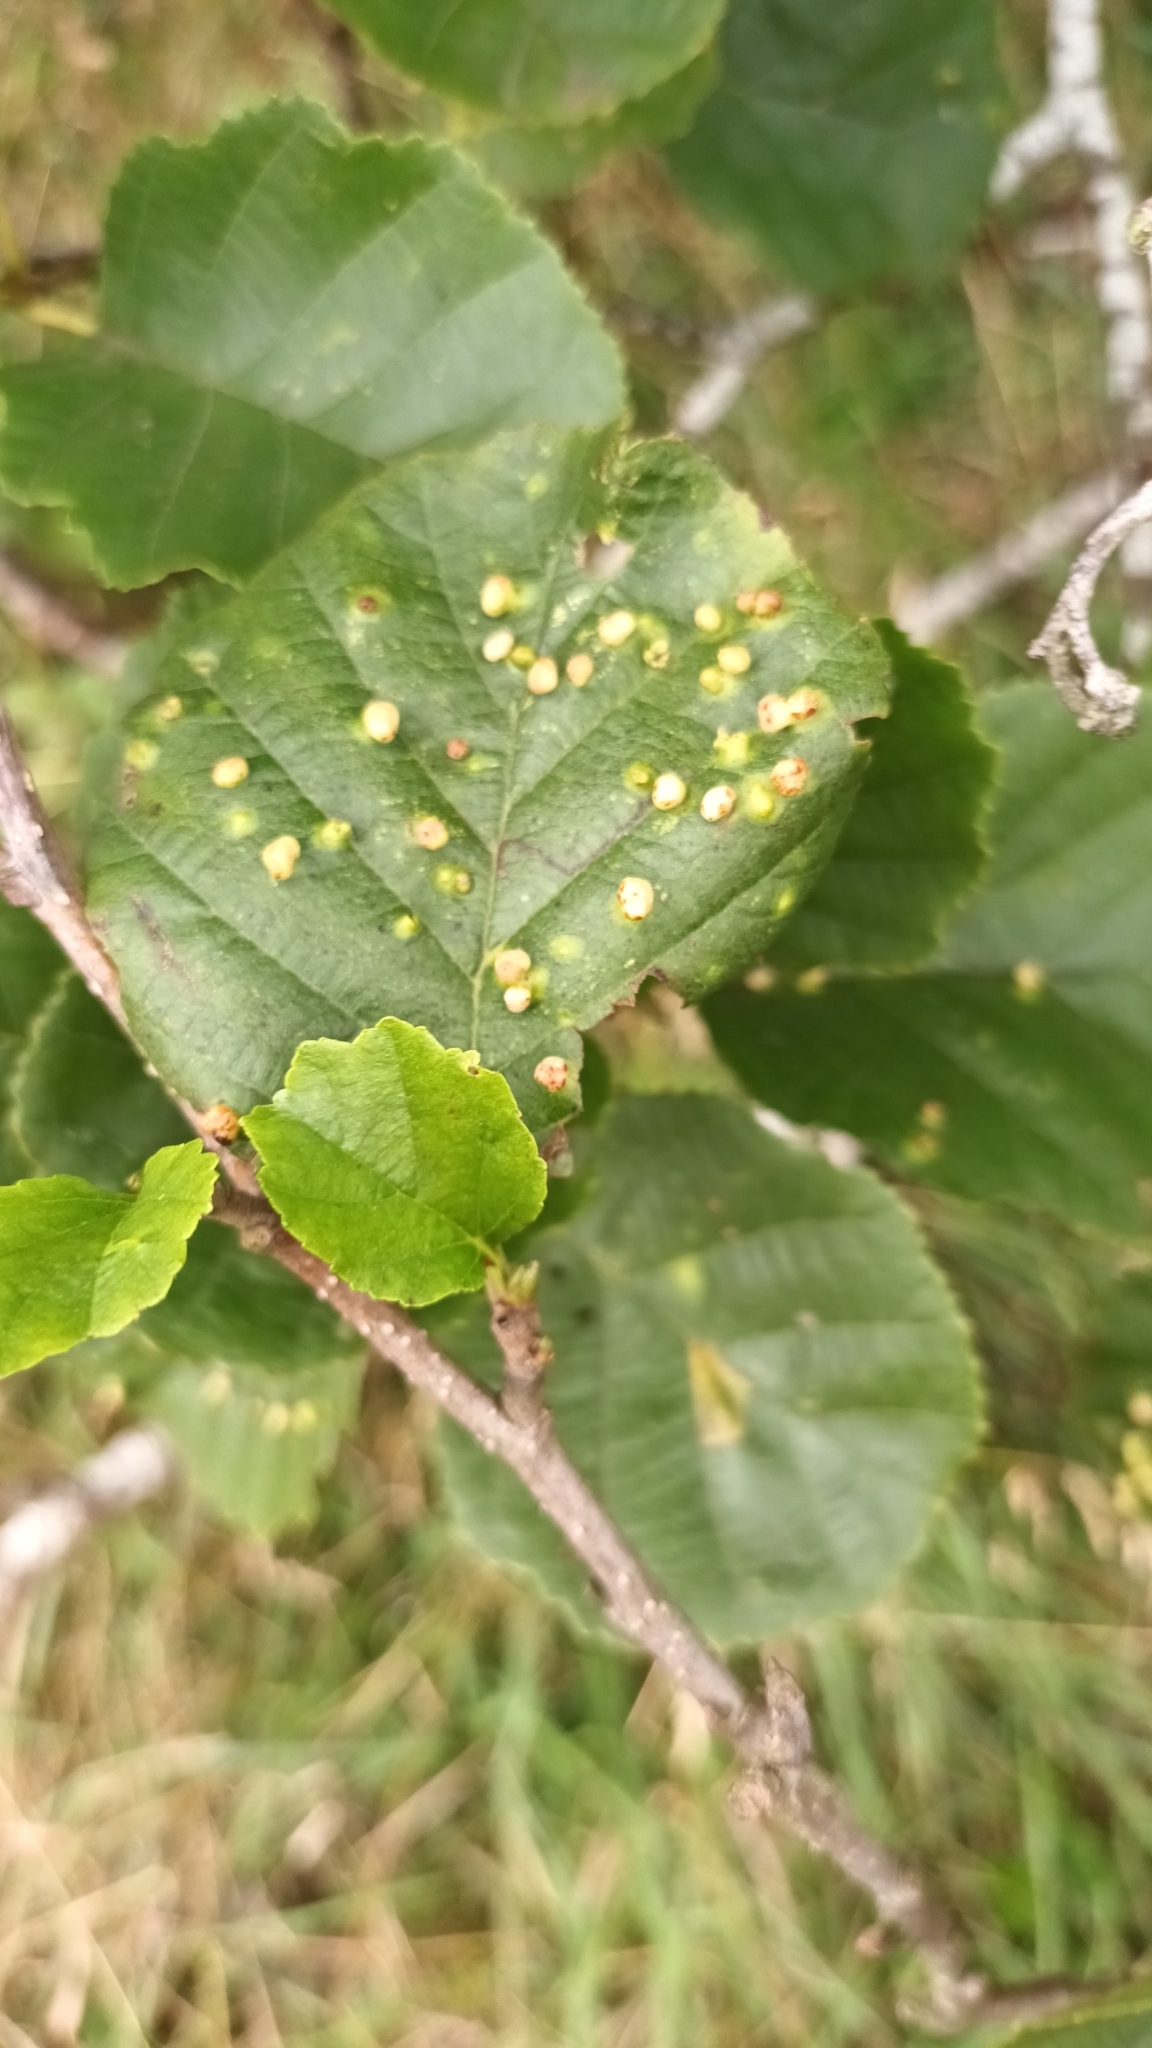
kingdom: Animalia
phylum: Arthropoda
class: Arachnida
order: Trombidiformes
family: Eriophyidae
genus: Eriophyes
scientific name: Eriophyes laevis
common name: Alder leaf gall mite
